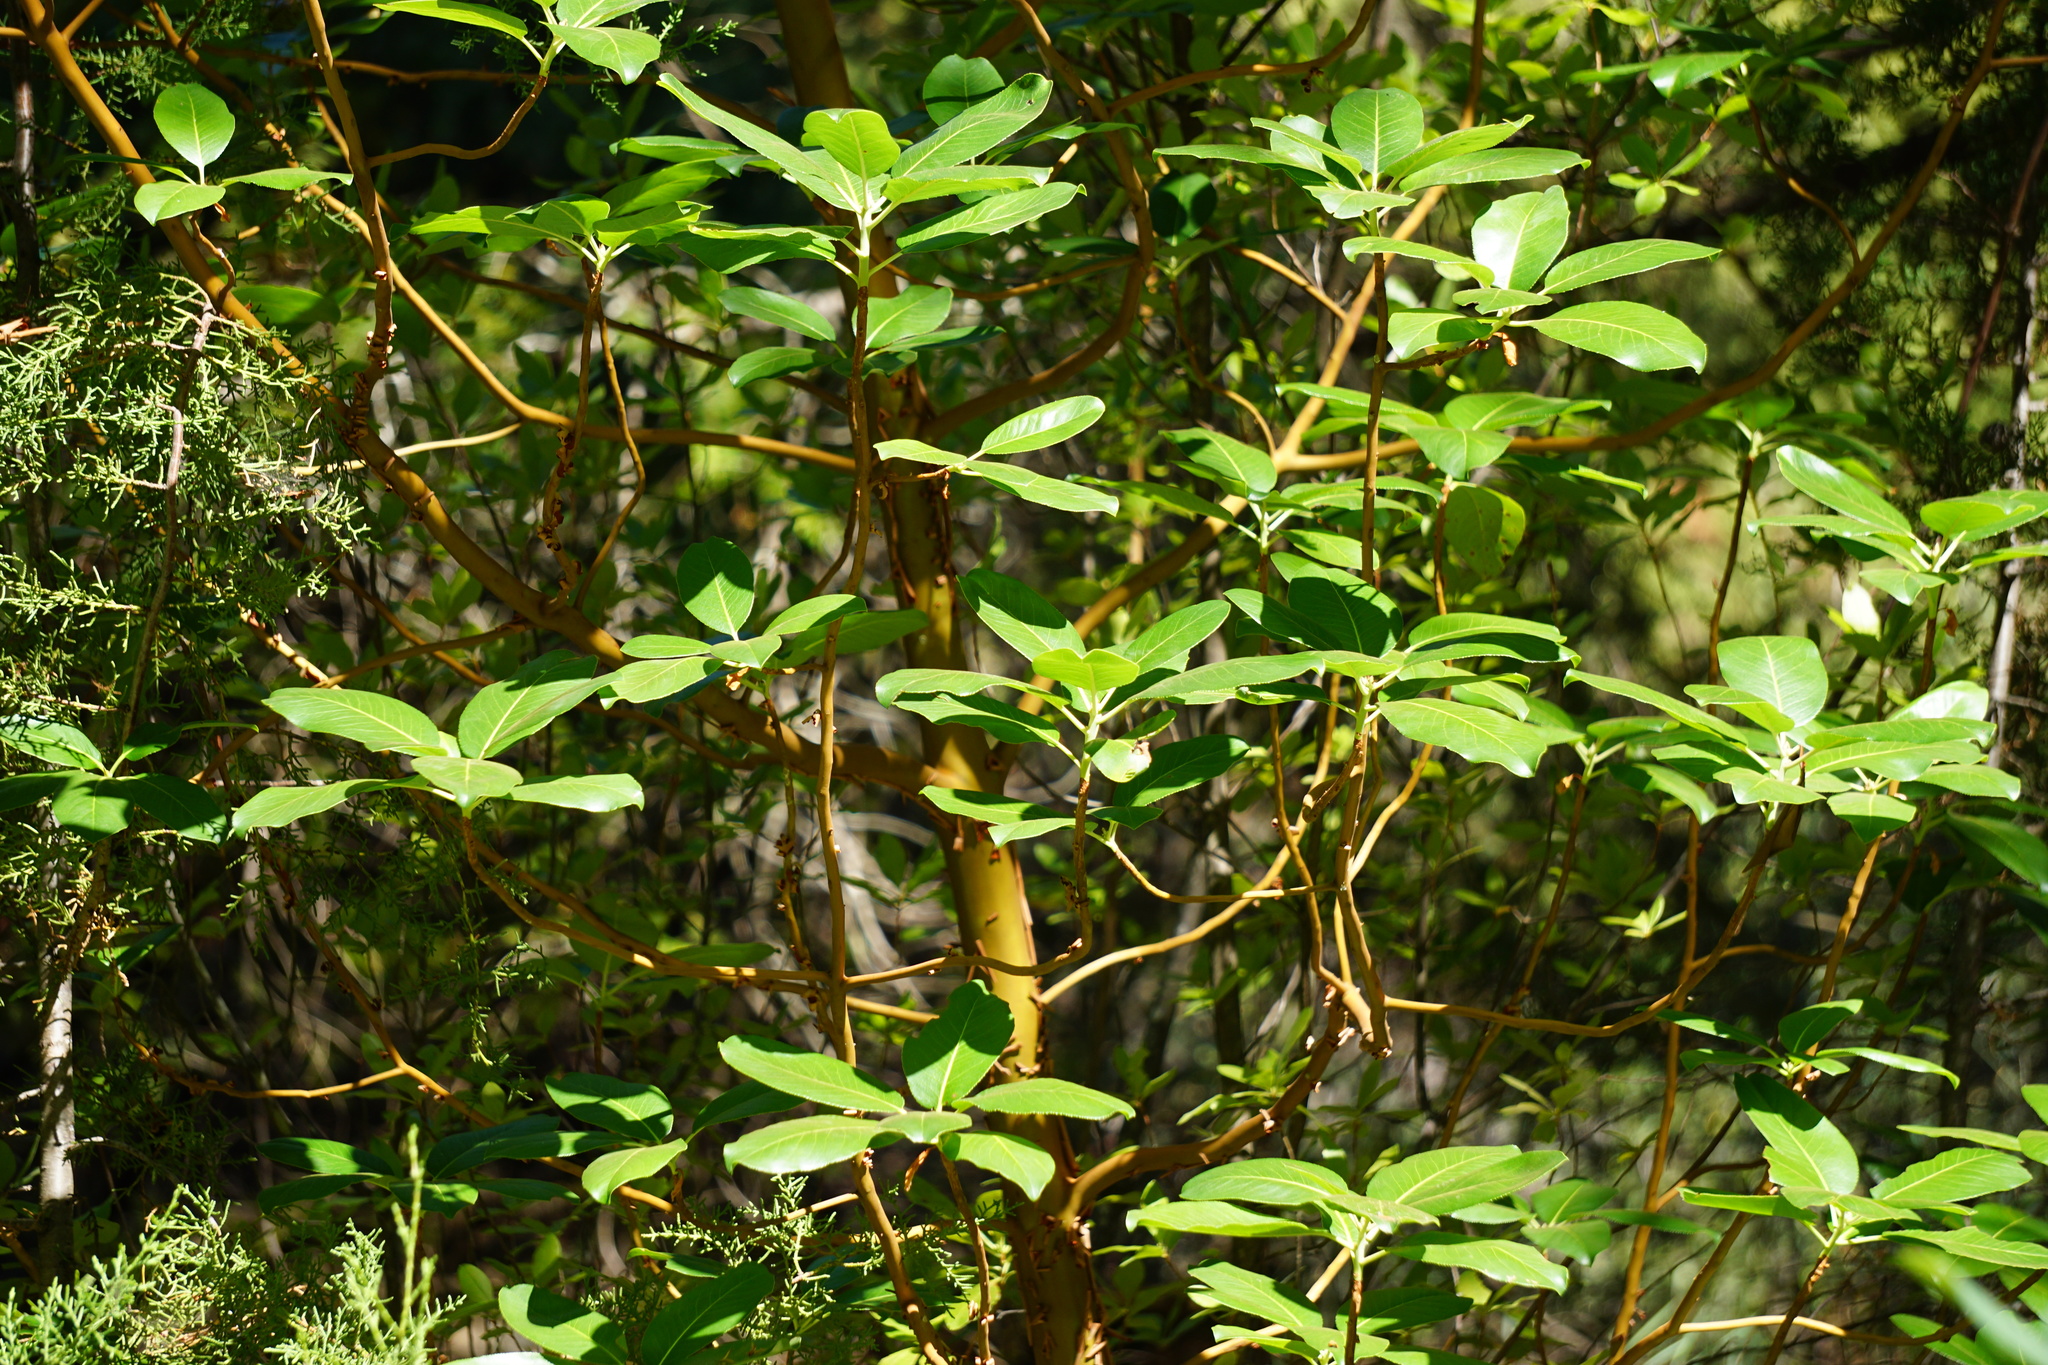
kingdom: Plantae
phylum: Tracheophyta
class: Magnoliopsida
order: Ericales
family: Ericaceae
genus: Arbutus
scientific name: Arbutus menziesii
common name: Pacific madrone
